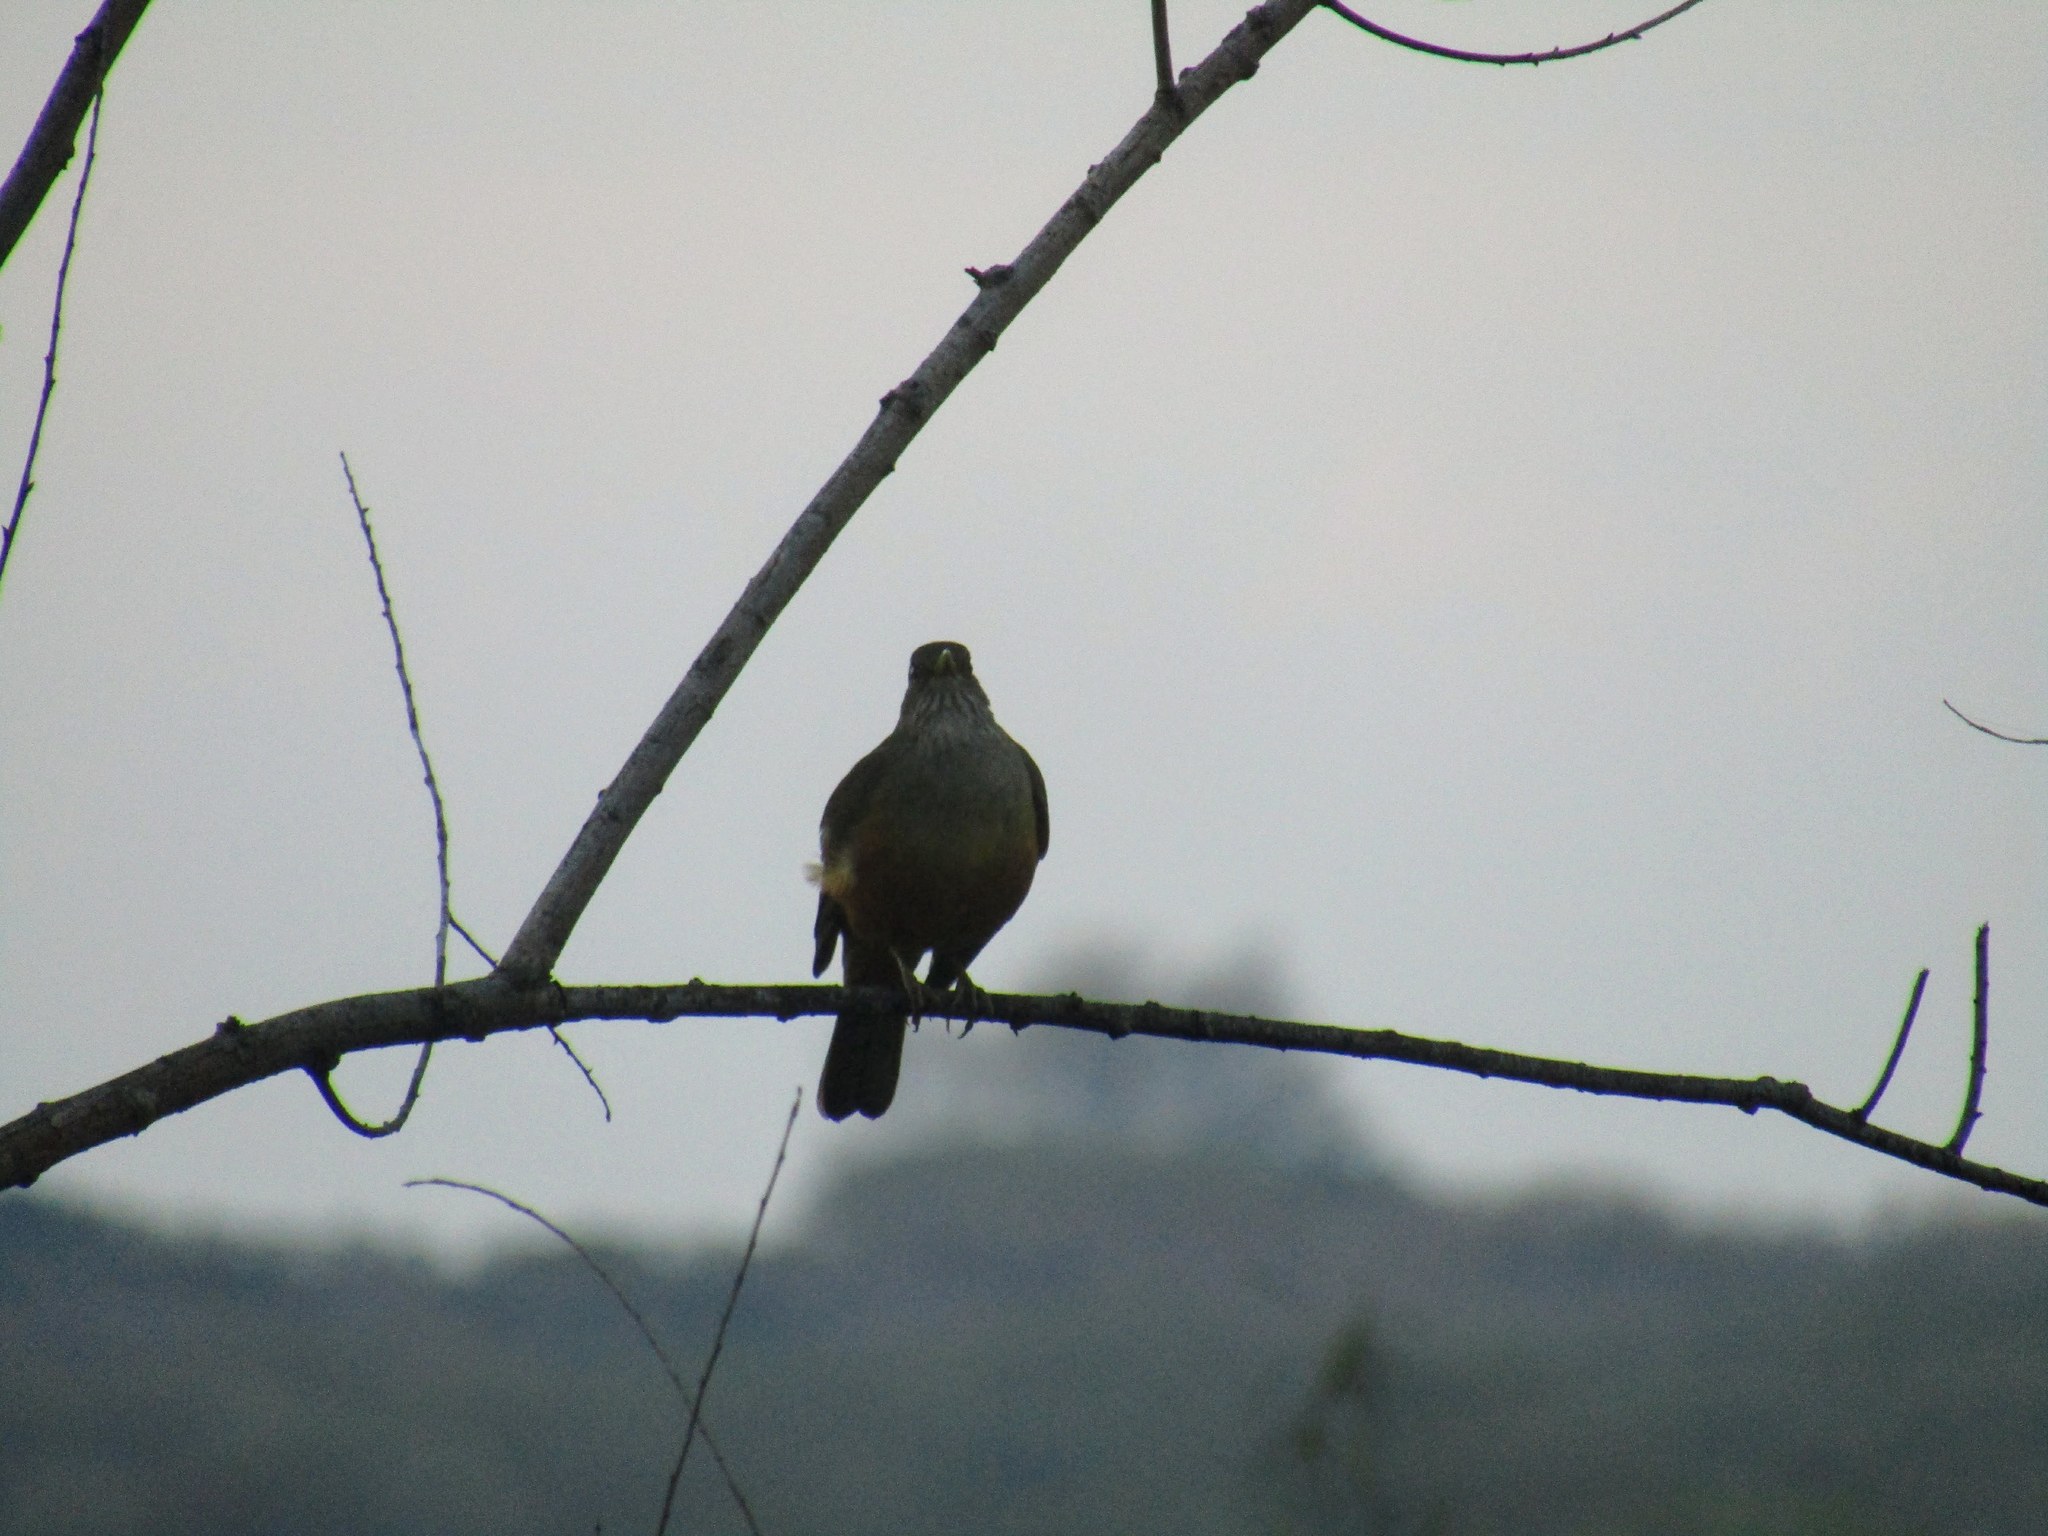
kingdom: Animalia
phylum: Chordata
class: Aves
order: Passeriformes
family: Turdidae
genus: Turdus
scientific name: Turdus rufiventris
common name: Rufous-bellied thrush
